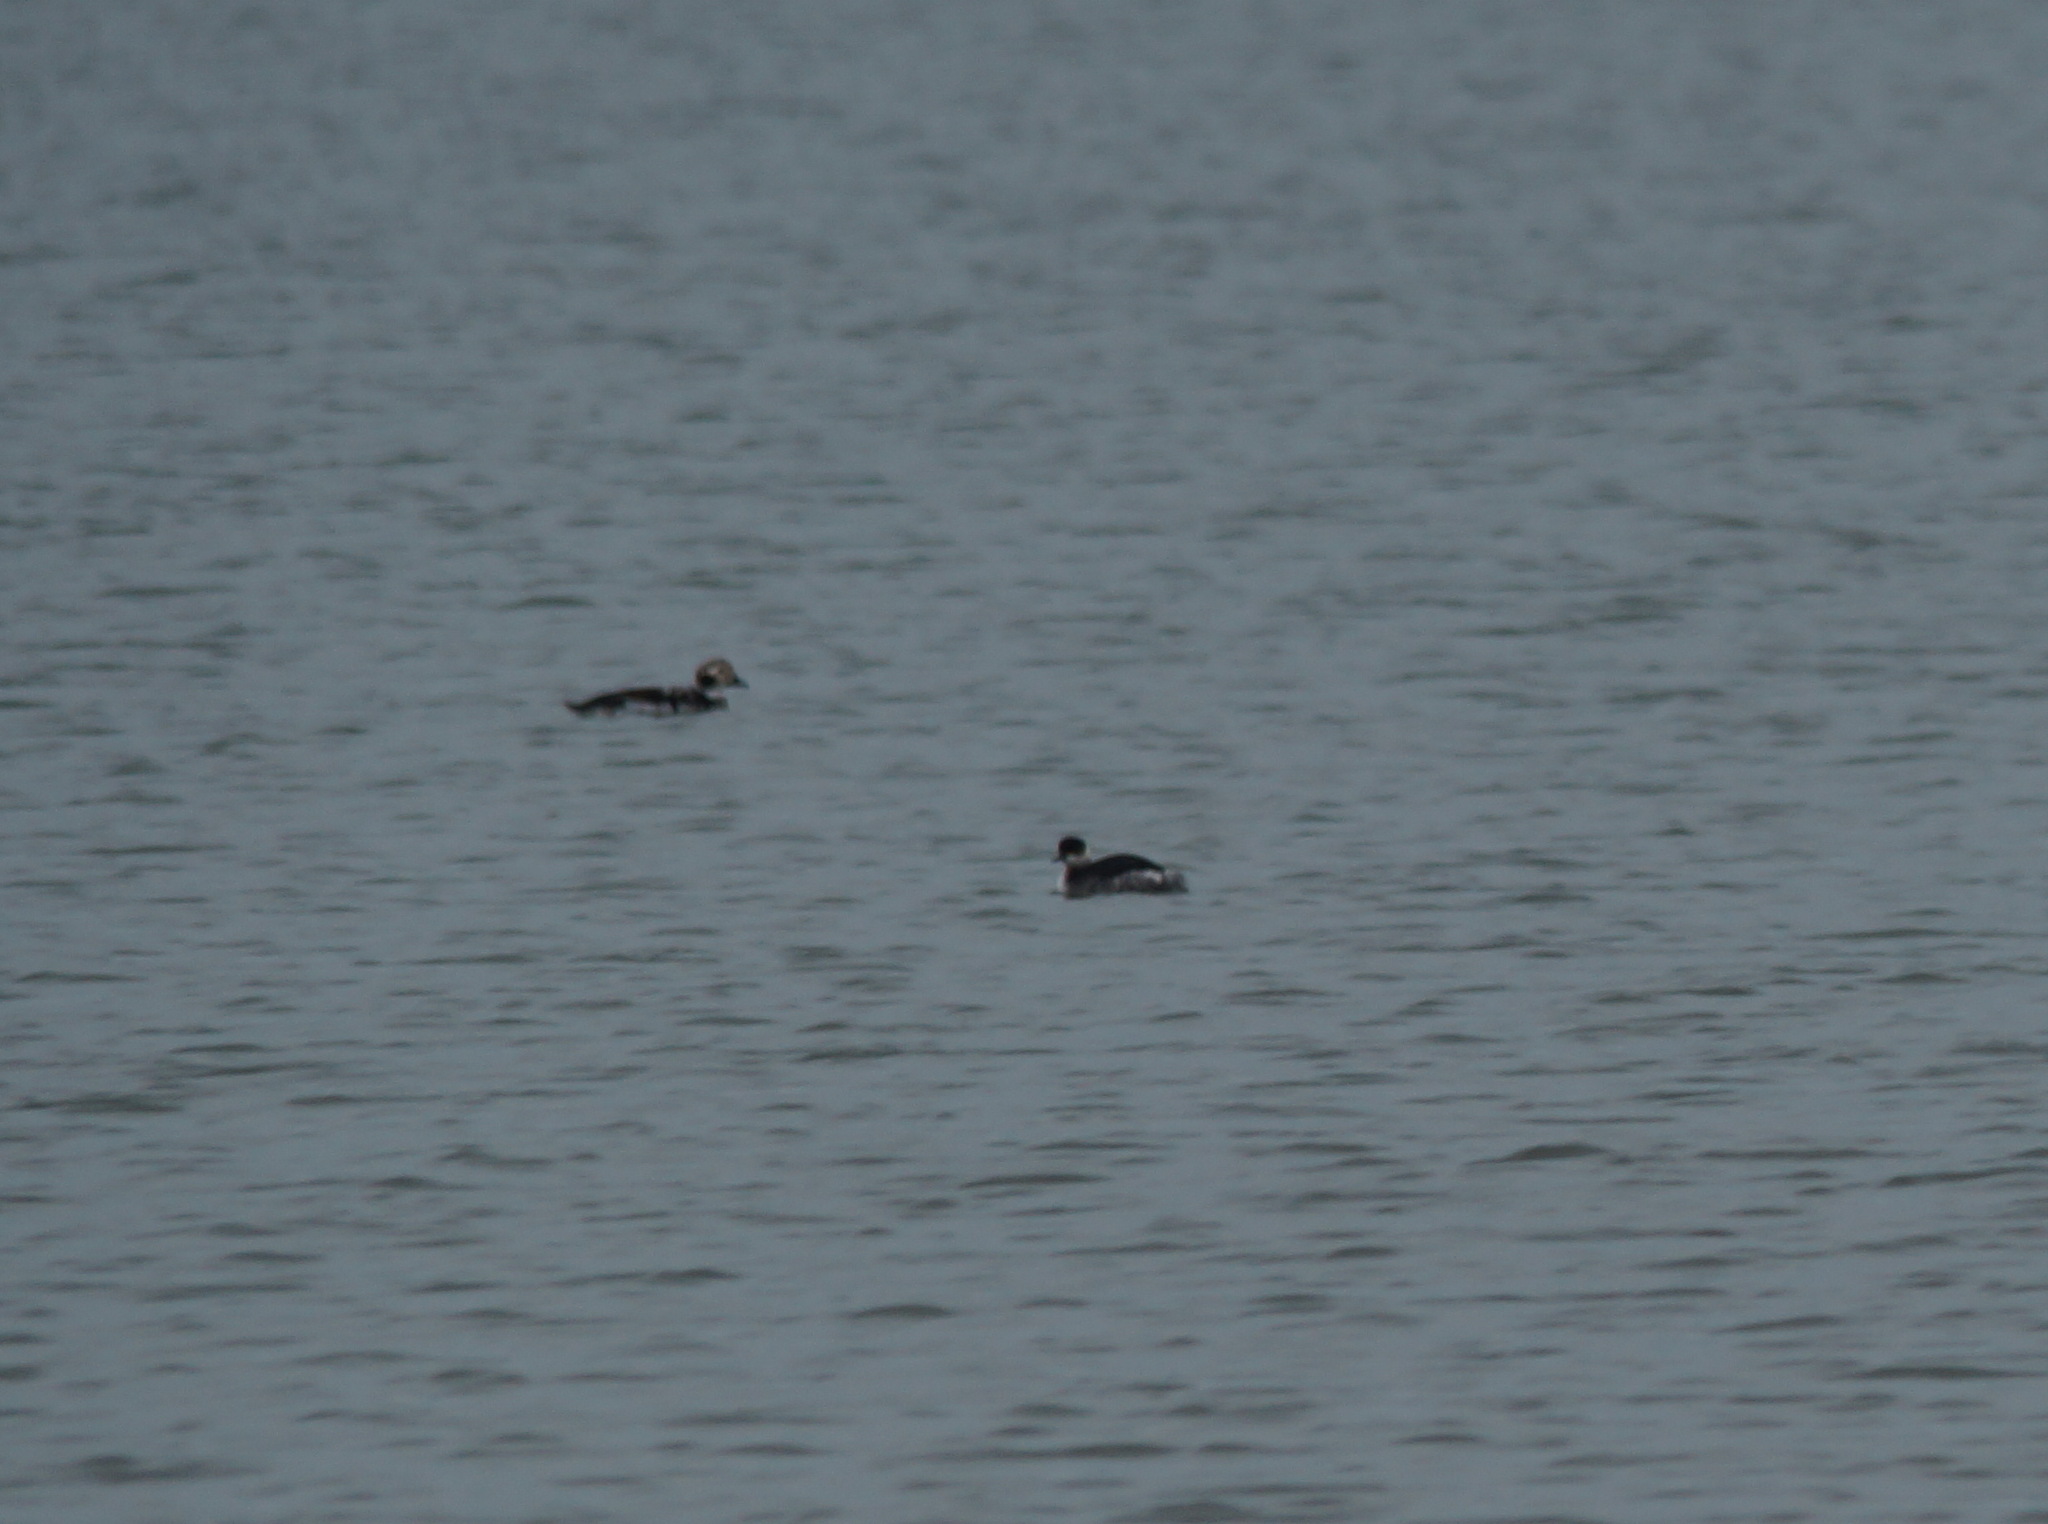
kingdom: Animalia
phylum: Chordata
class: Aves
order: Anseriformes
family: Anatidae
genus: Clangula
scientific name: Clangula hyemalis
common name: Long-tailed duck
